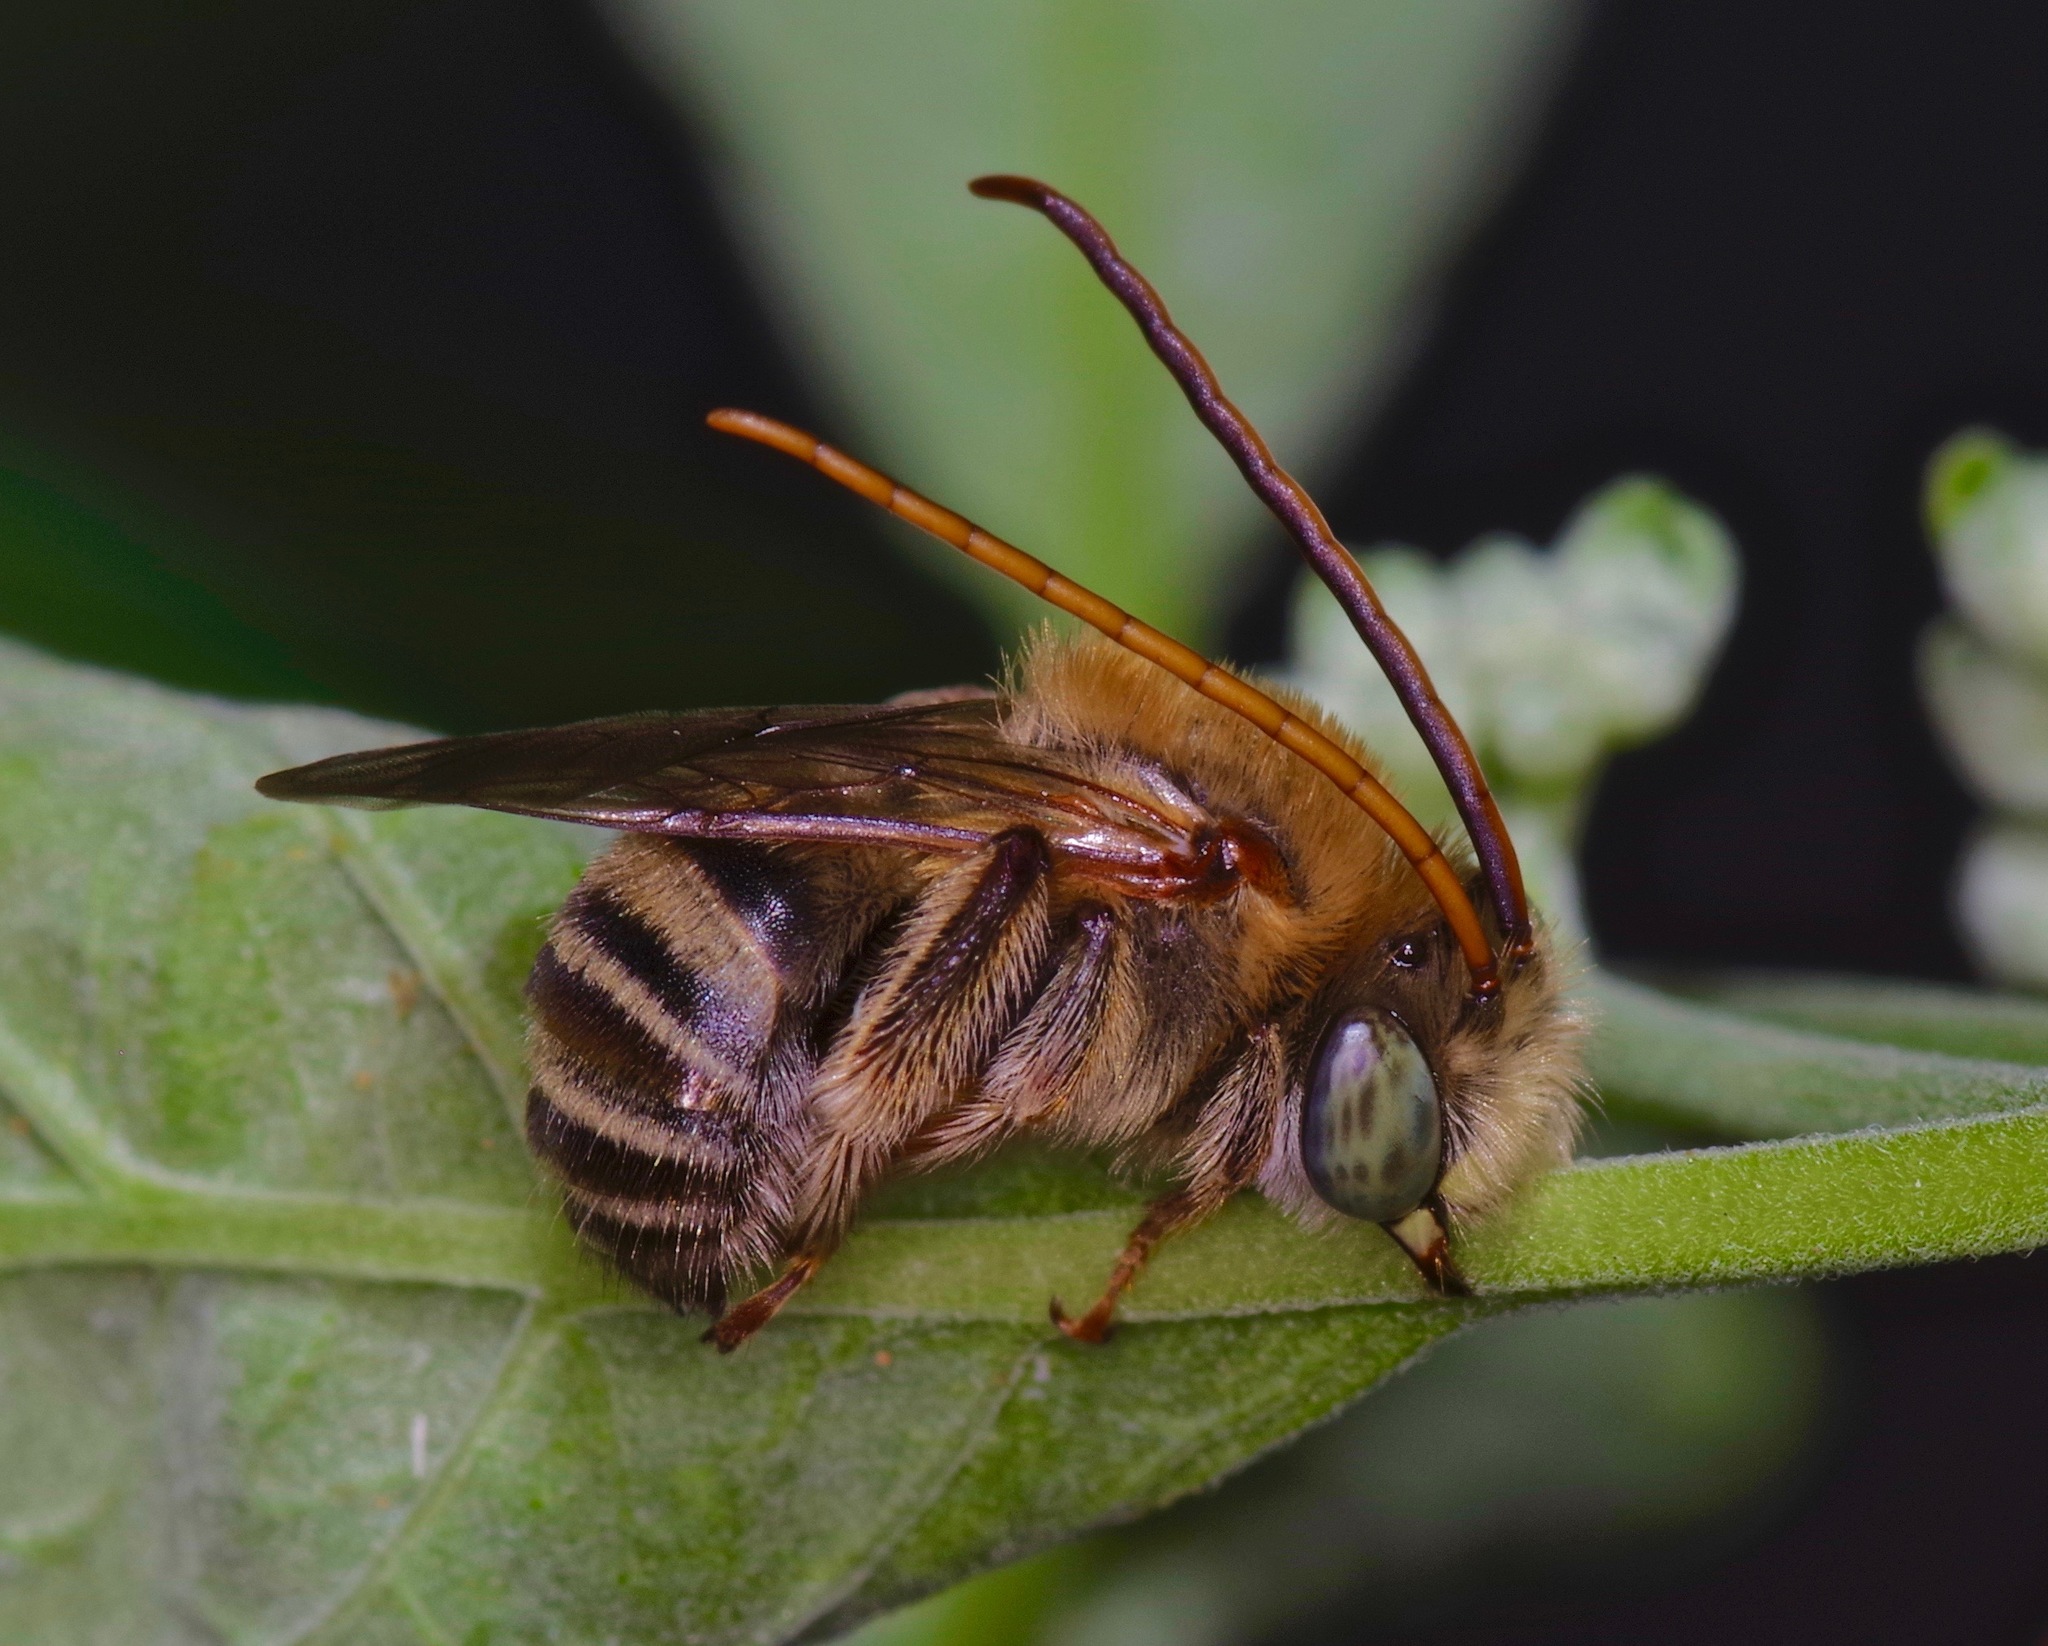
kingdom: Animalia
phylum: Arthropoda
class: Insecta
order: Hymenoptera
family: Apidae
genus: Melissodes
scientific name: Melissodes tepaneca
